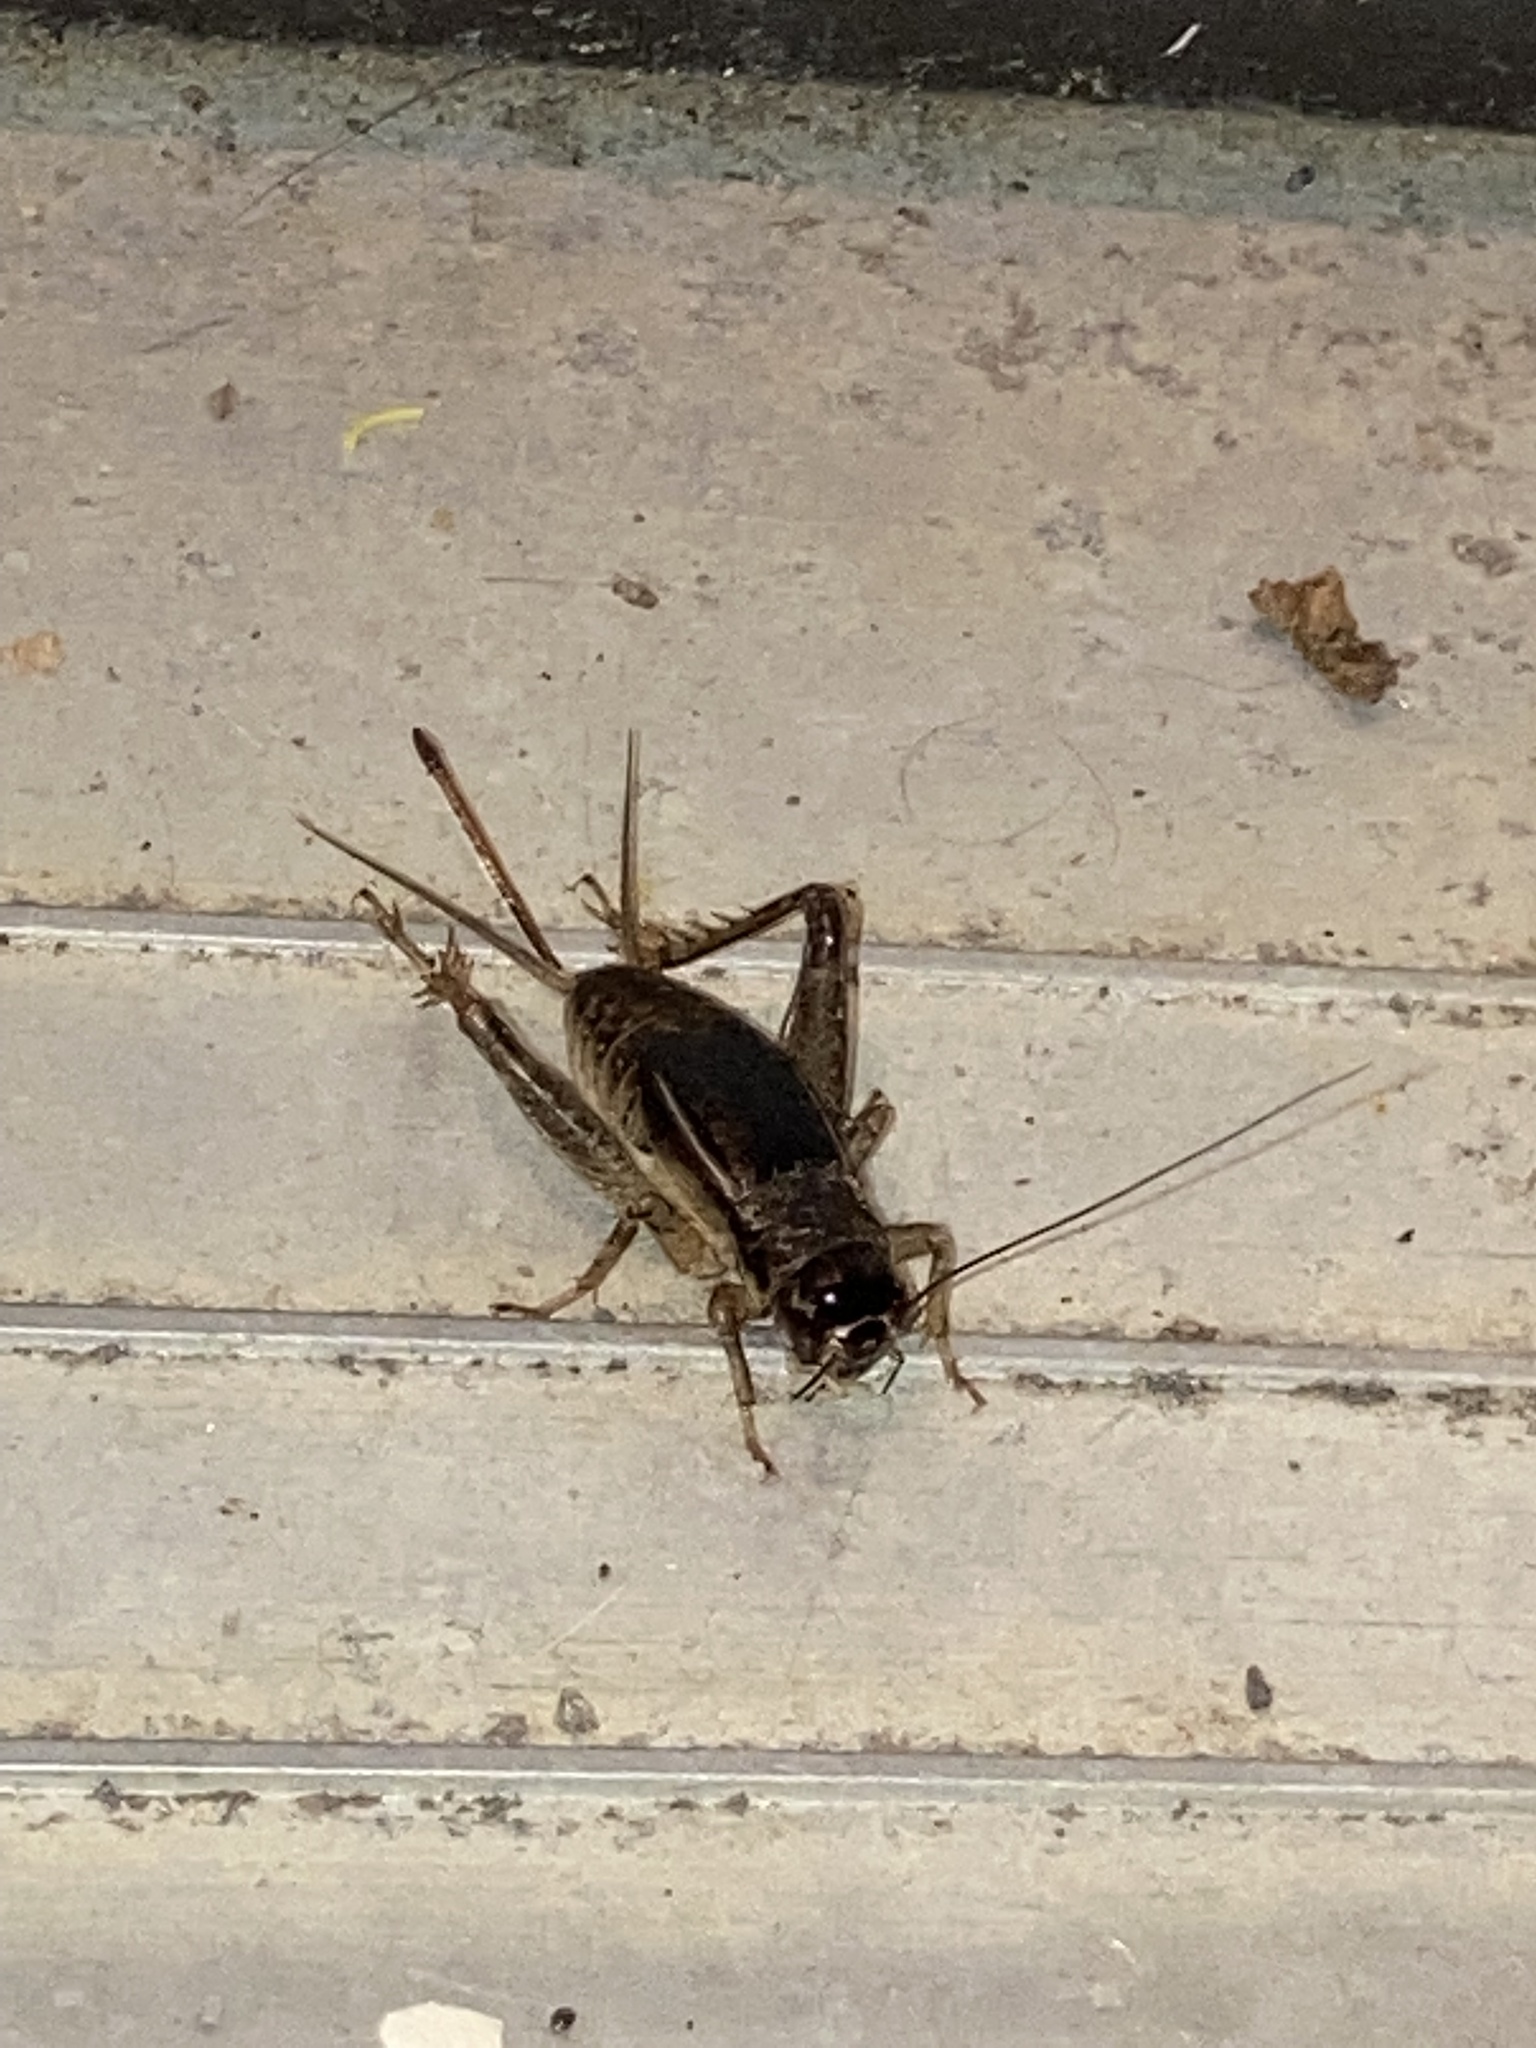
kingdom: Animalia
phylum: Arthropoda
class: Insecta
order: Orthoptera
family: Gryllidae
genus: Velarifictorus
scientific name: Velarifictorus micado
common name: Japanese burrowing cricket
